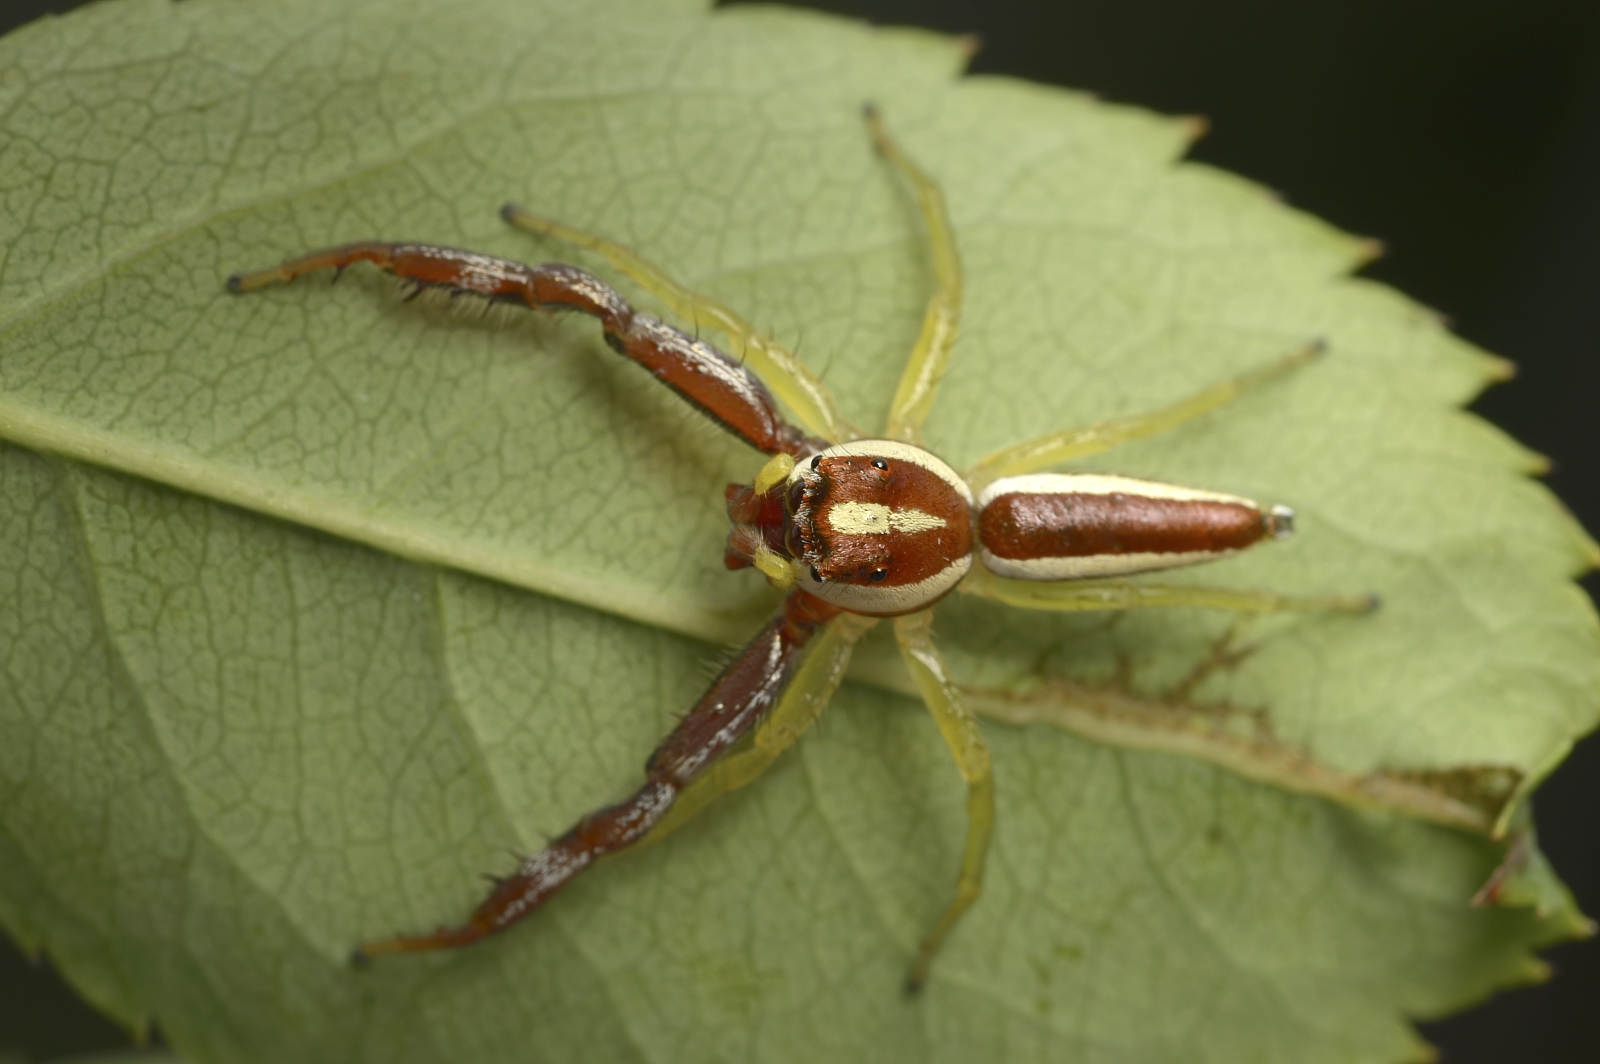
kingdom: Animalia
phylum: Arthropoda
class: Arachnida
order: Araneae
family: Salticidae
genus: Epocilla
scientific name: Epocilla calcarata
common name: Jumping spider
